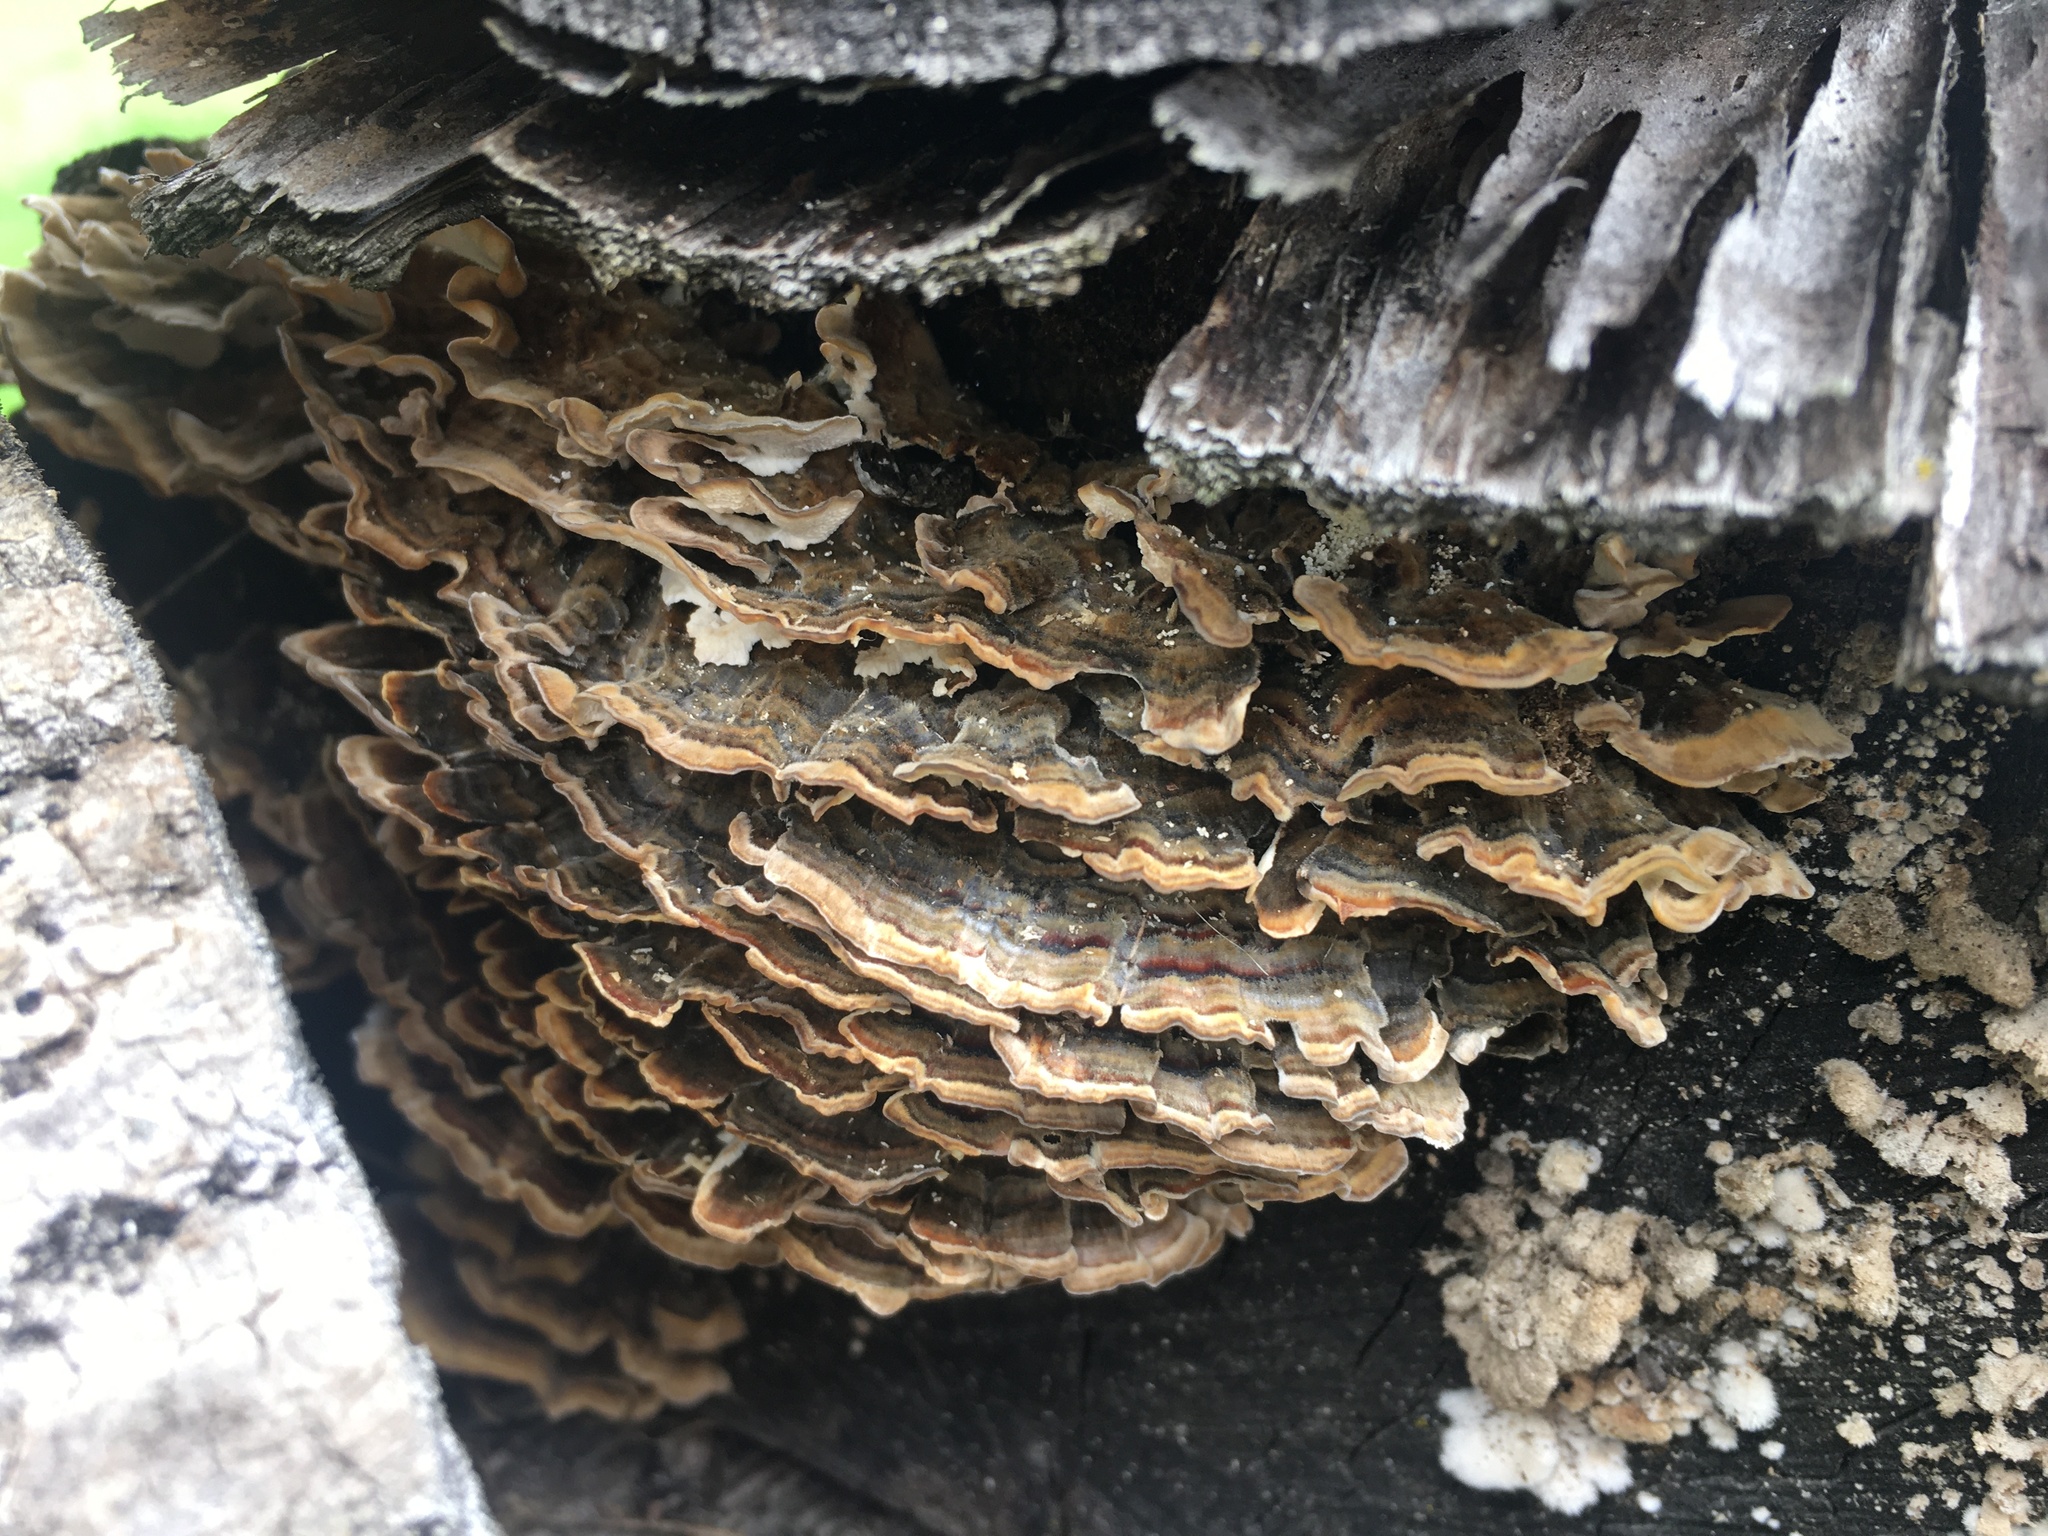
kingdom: Fungi
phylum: Basidiomycota
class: Agaricomycetes
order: Polyporales
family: Polyporaceae
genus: Trametes
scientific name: Trametes versicolor
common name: Turkeytail
